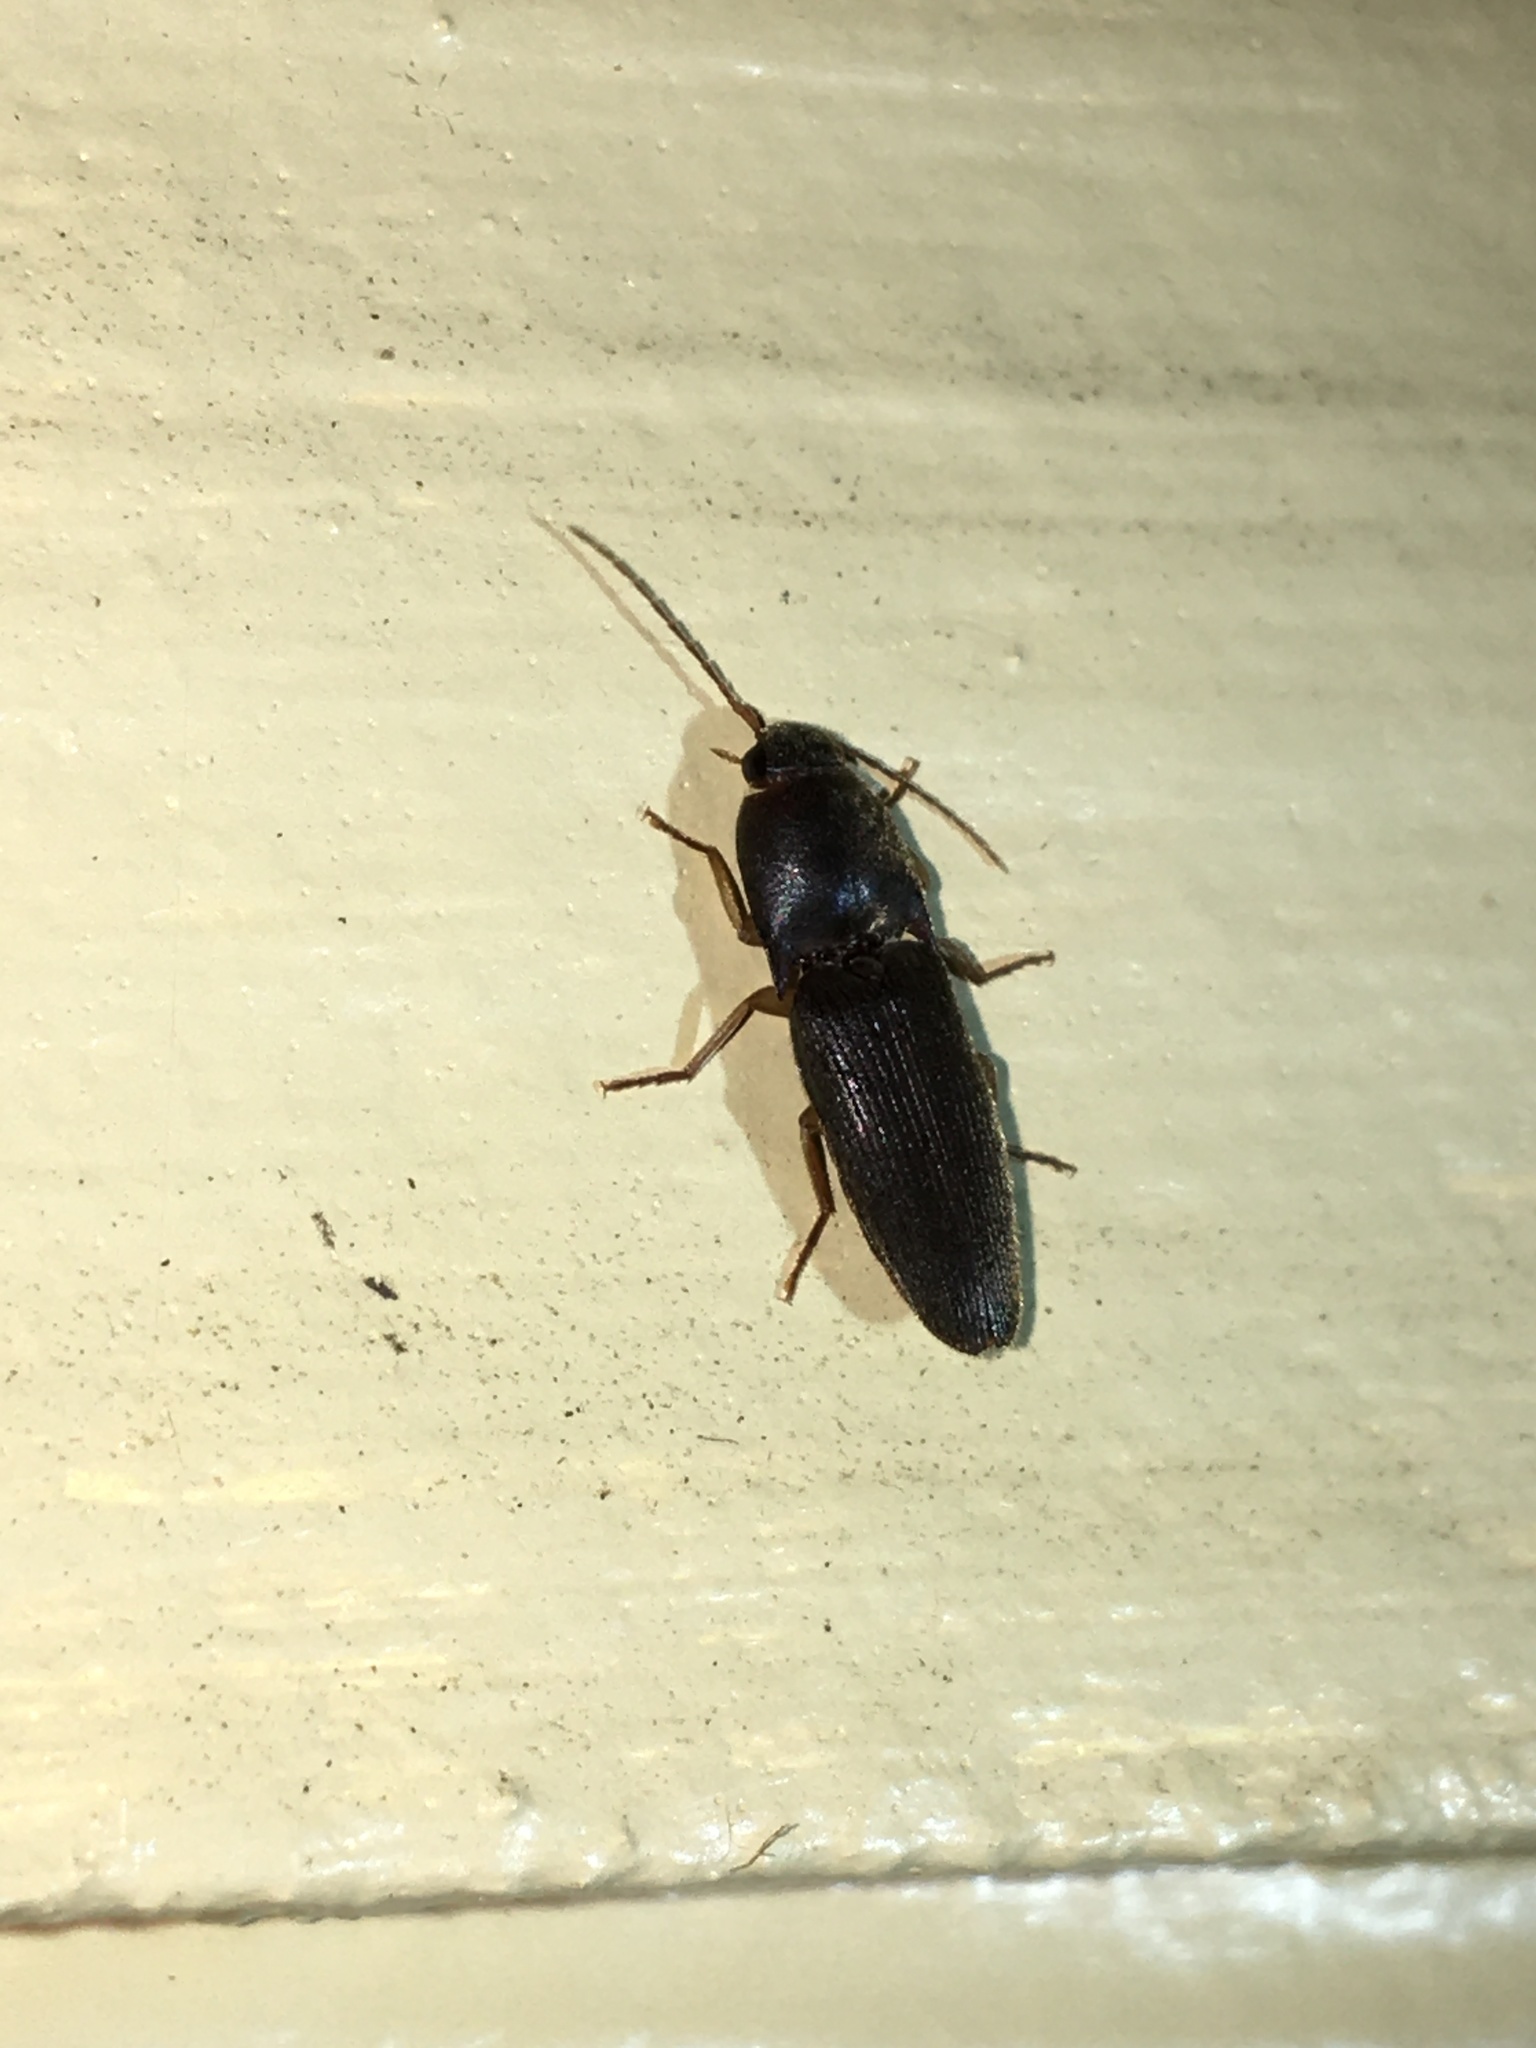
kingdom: Animalia
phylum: Arthropoda
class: Insecta
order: Coleoptera
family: Elateridae
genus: Conoderus
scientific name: Conoderus exsul
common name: Click beetle
